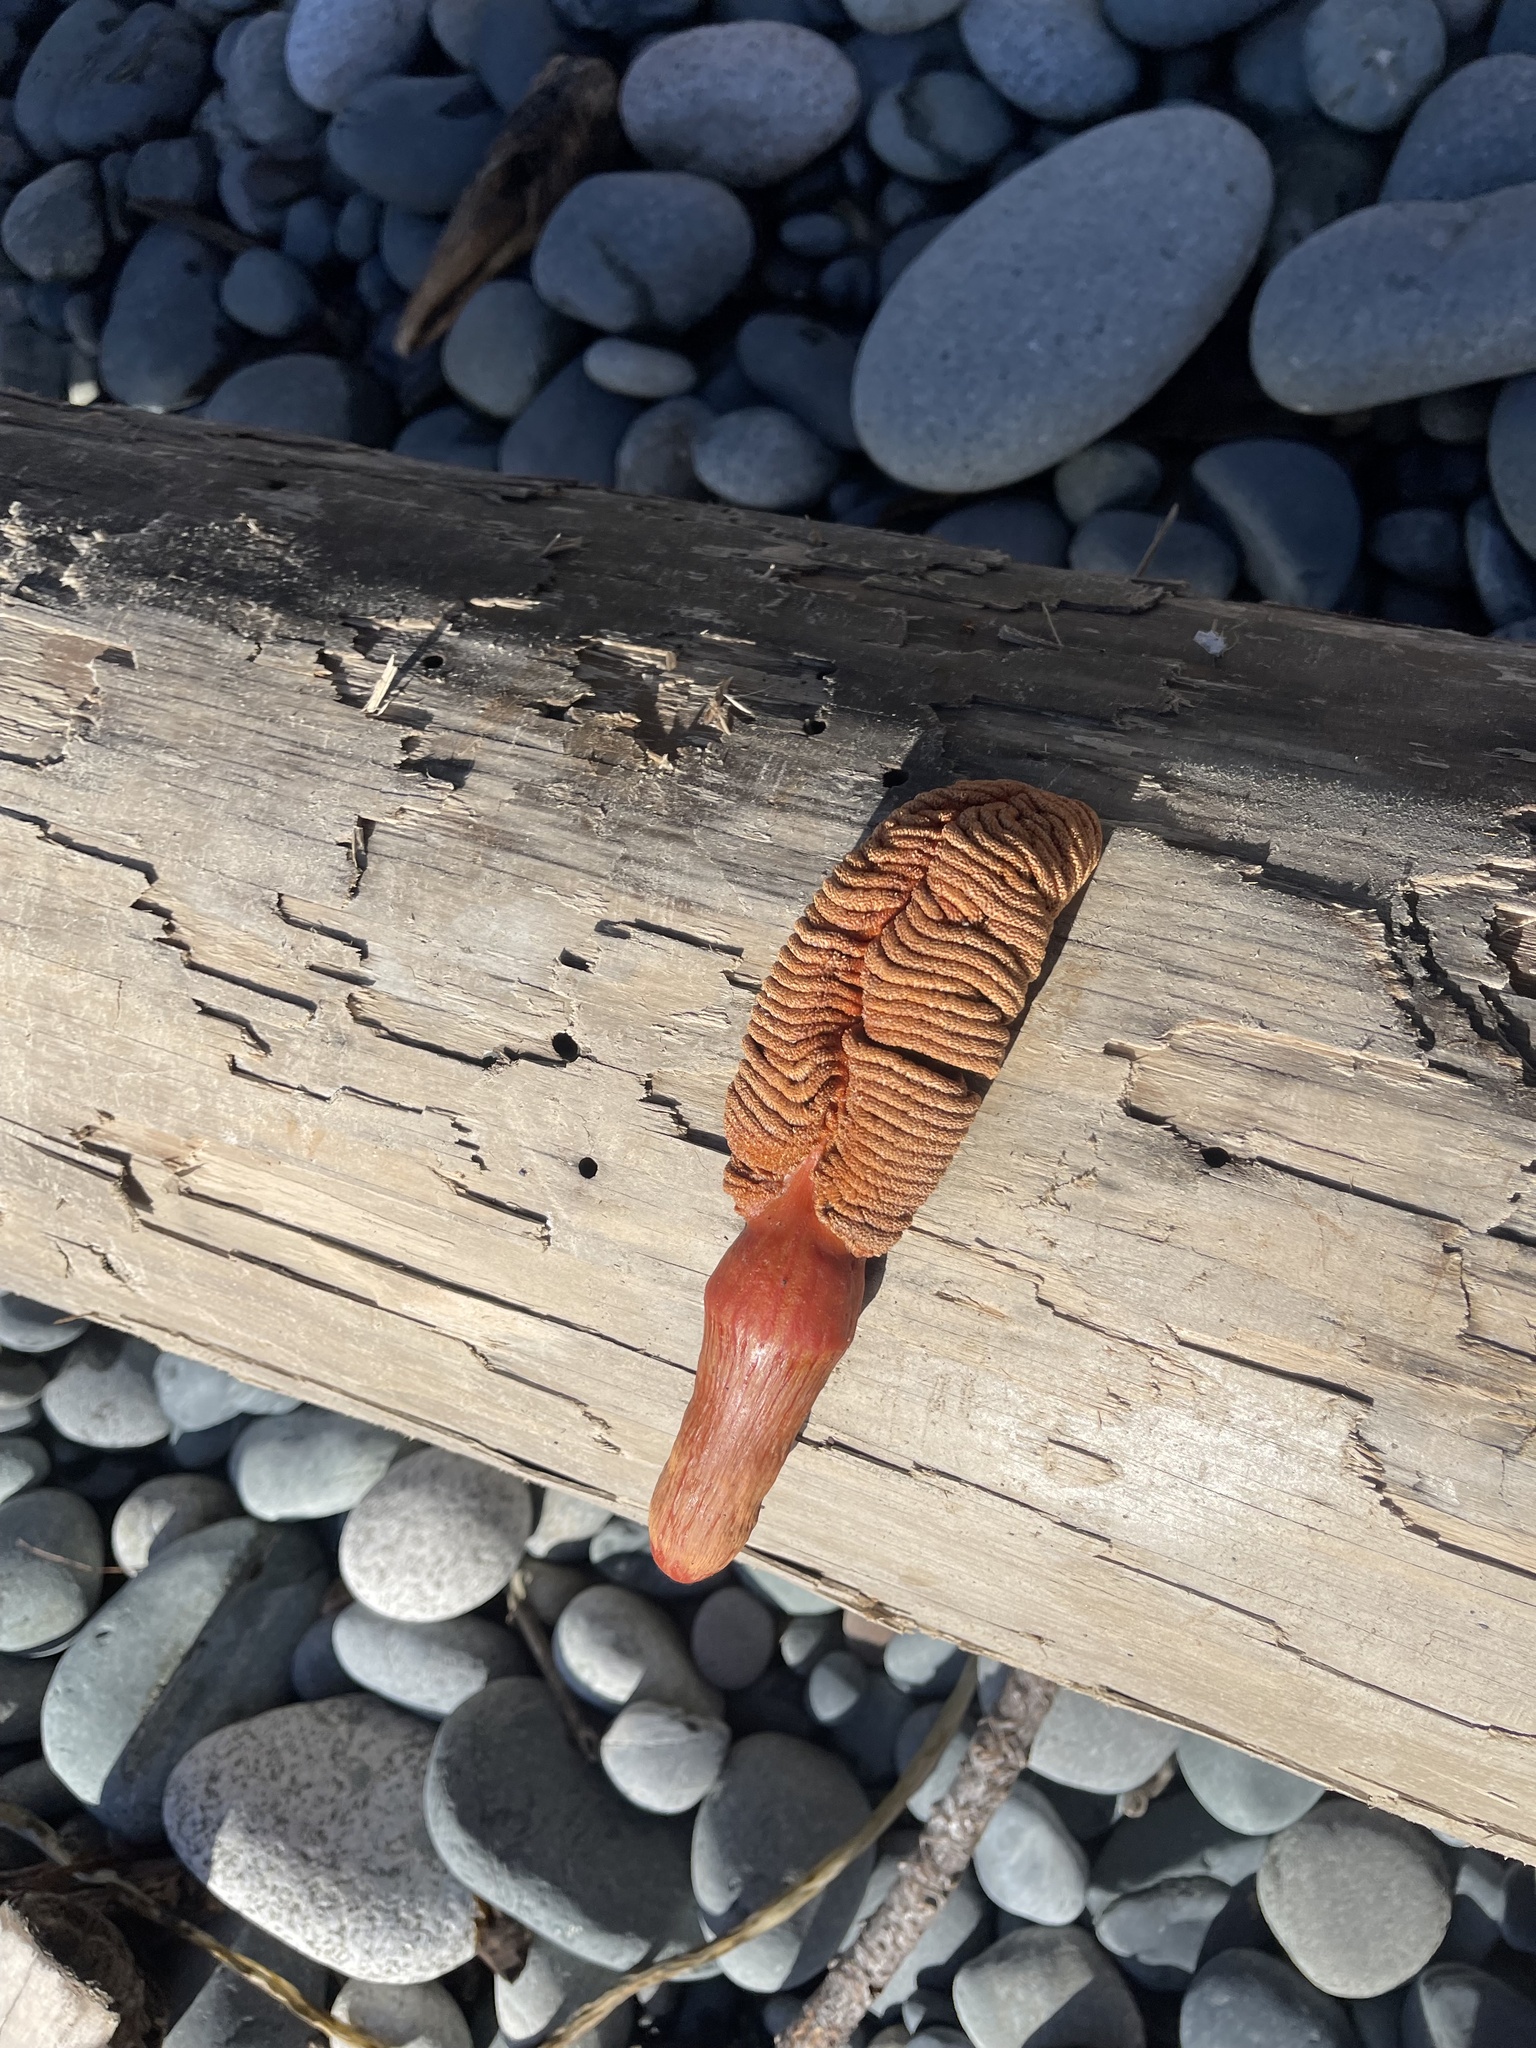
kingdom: Animalia
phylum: Cnidaria
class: Anthozoa
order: Scleralcyonacea
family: Pennatulidae
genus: Ptilosarcus
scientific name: Ptilosarcus gurneyi
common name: Gurney's sea pen
